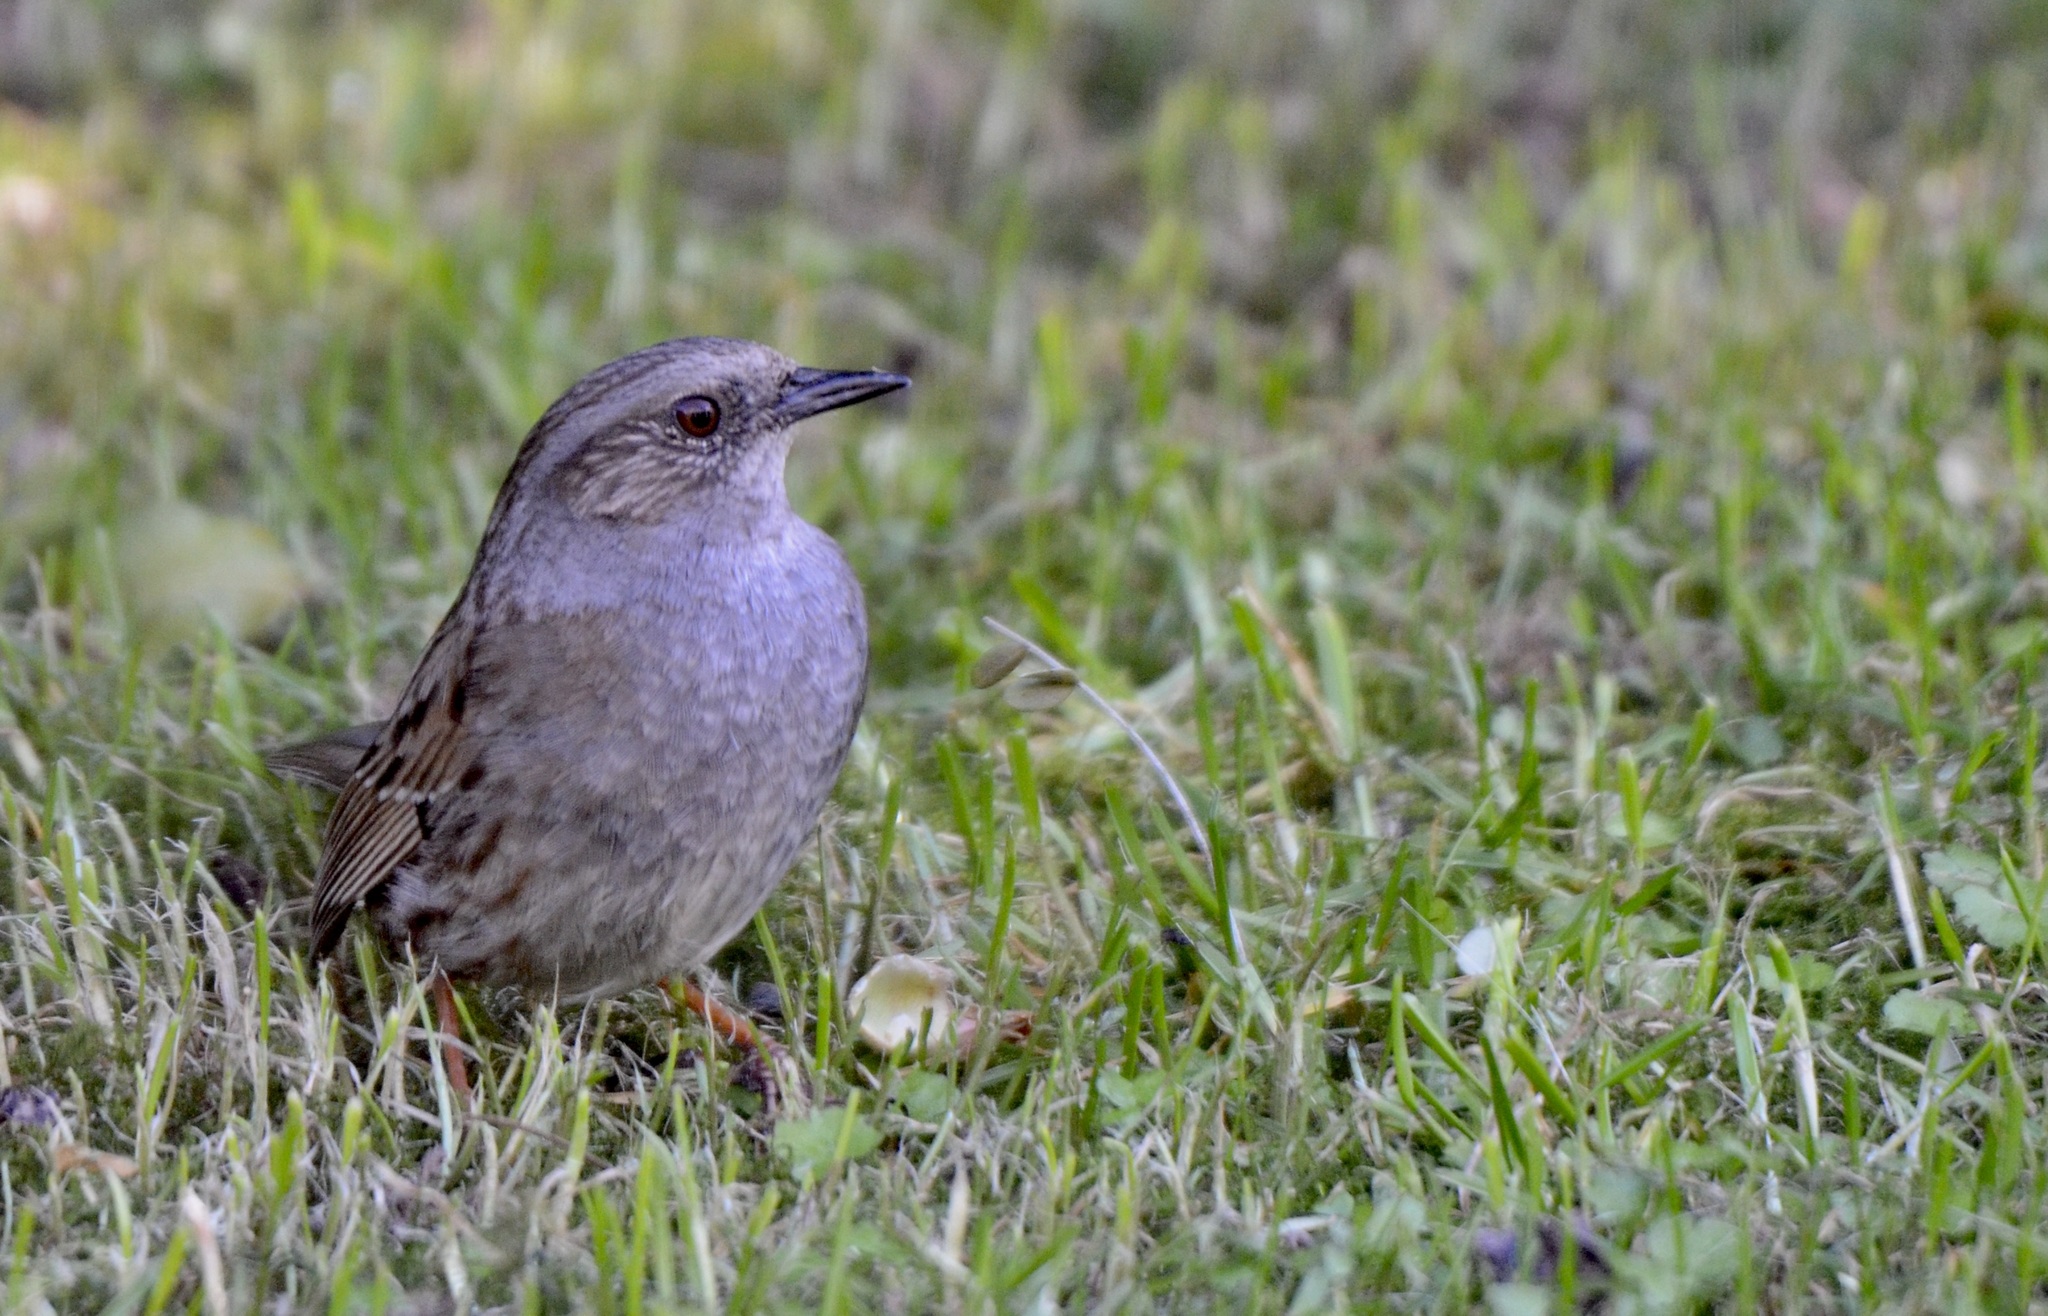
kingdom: Animalia
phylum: Chordata
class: Aves
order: Passeriformes
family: Prunellidae
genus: Prunella
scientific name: Prunella modularis
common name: Dunnock
